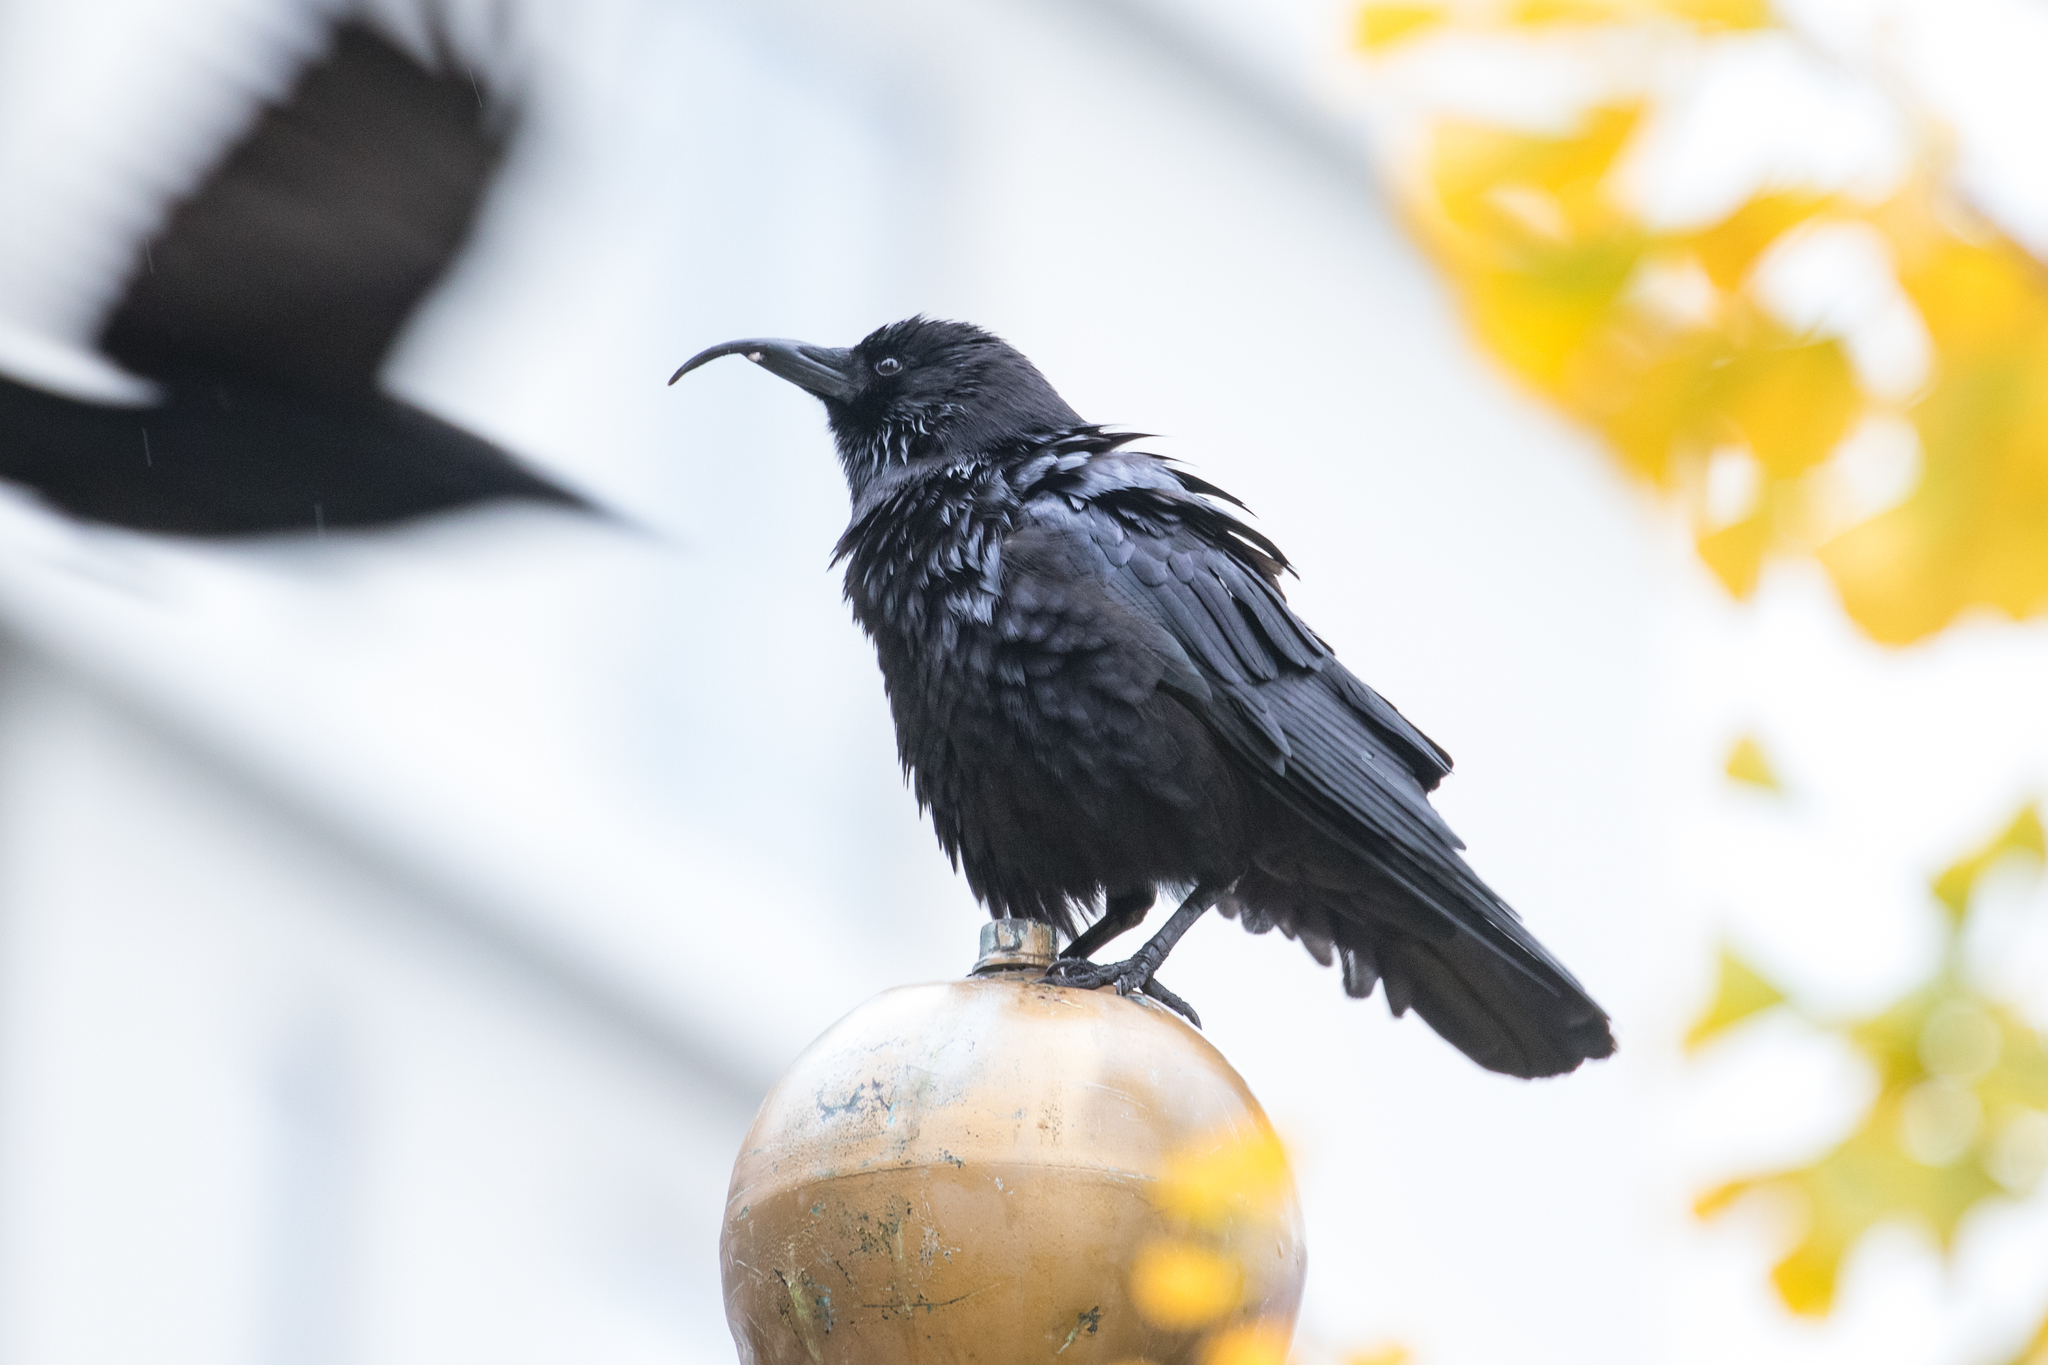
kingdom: Animalia
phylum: Chordata
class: Aves
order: Passeriformes
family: Corvidae
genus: Corvus
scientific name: Corvus brachyrhynchos
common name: American crow
